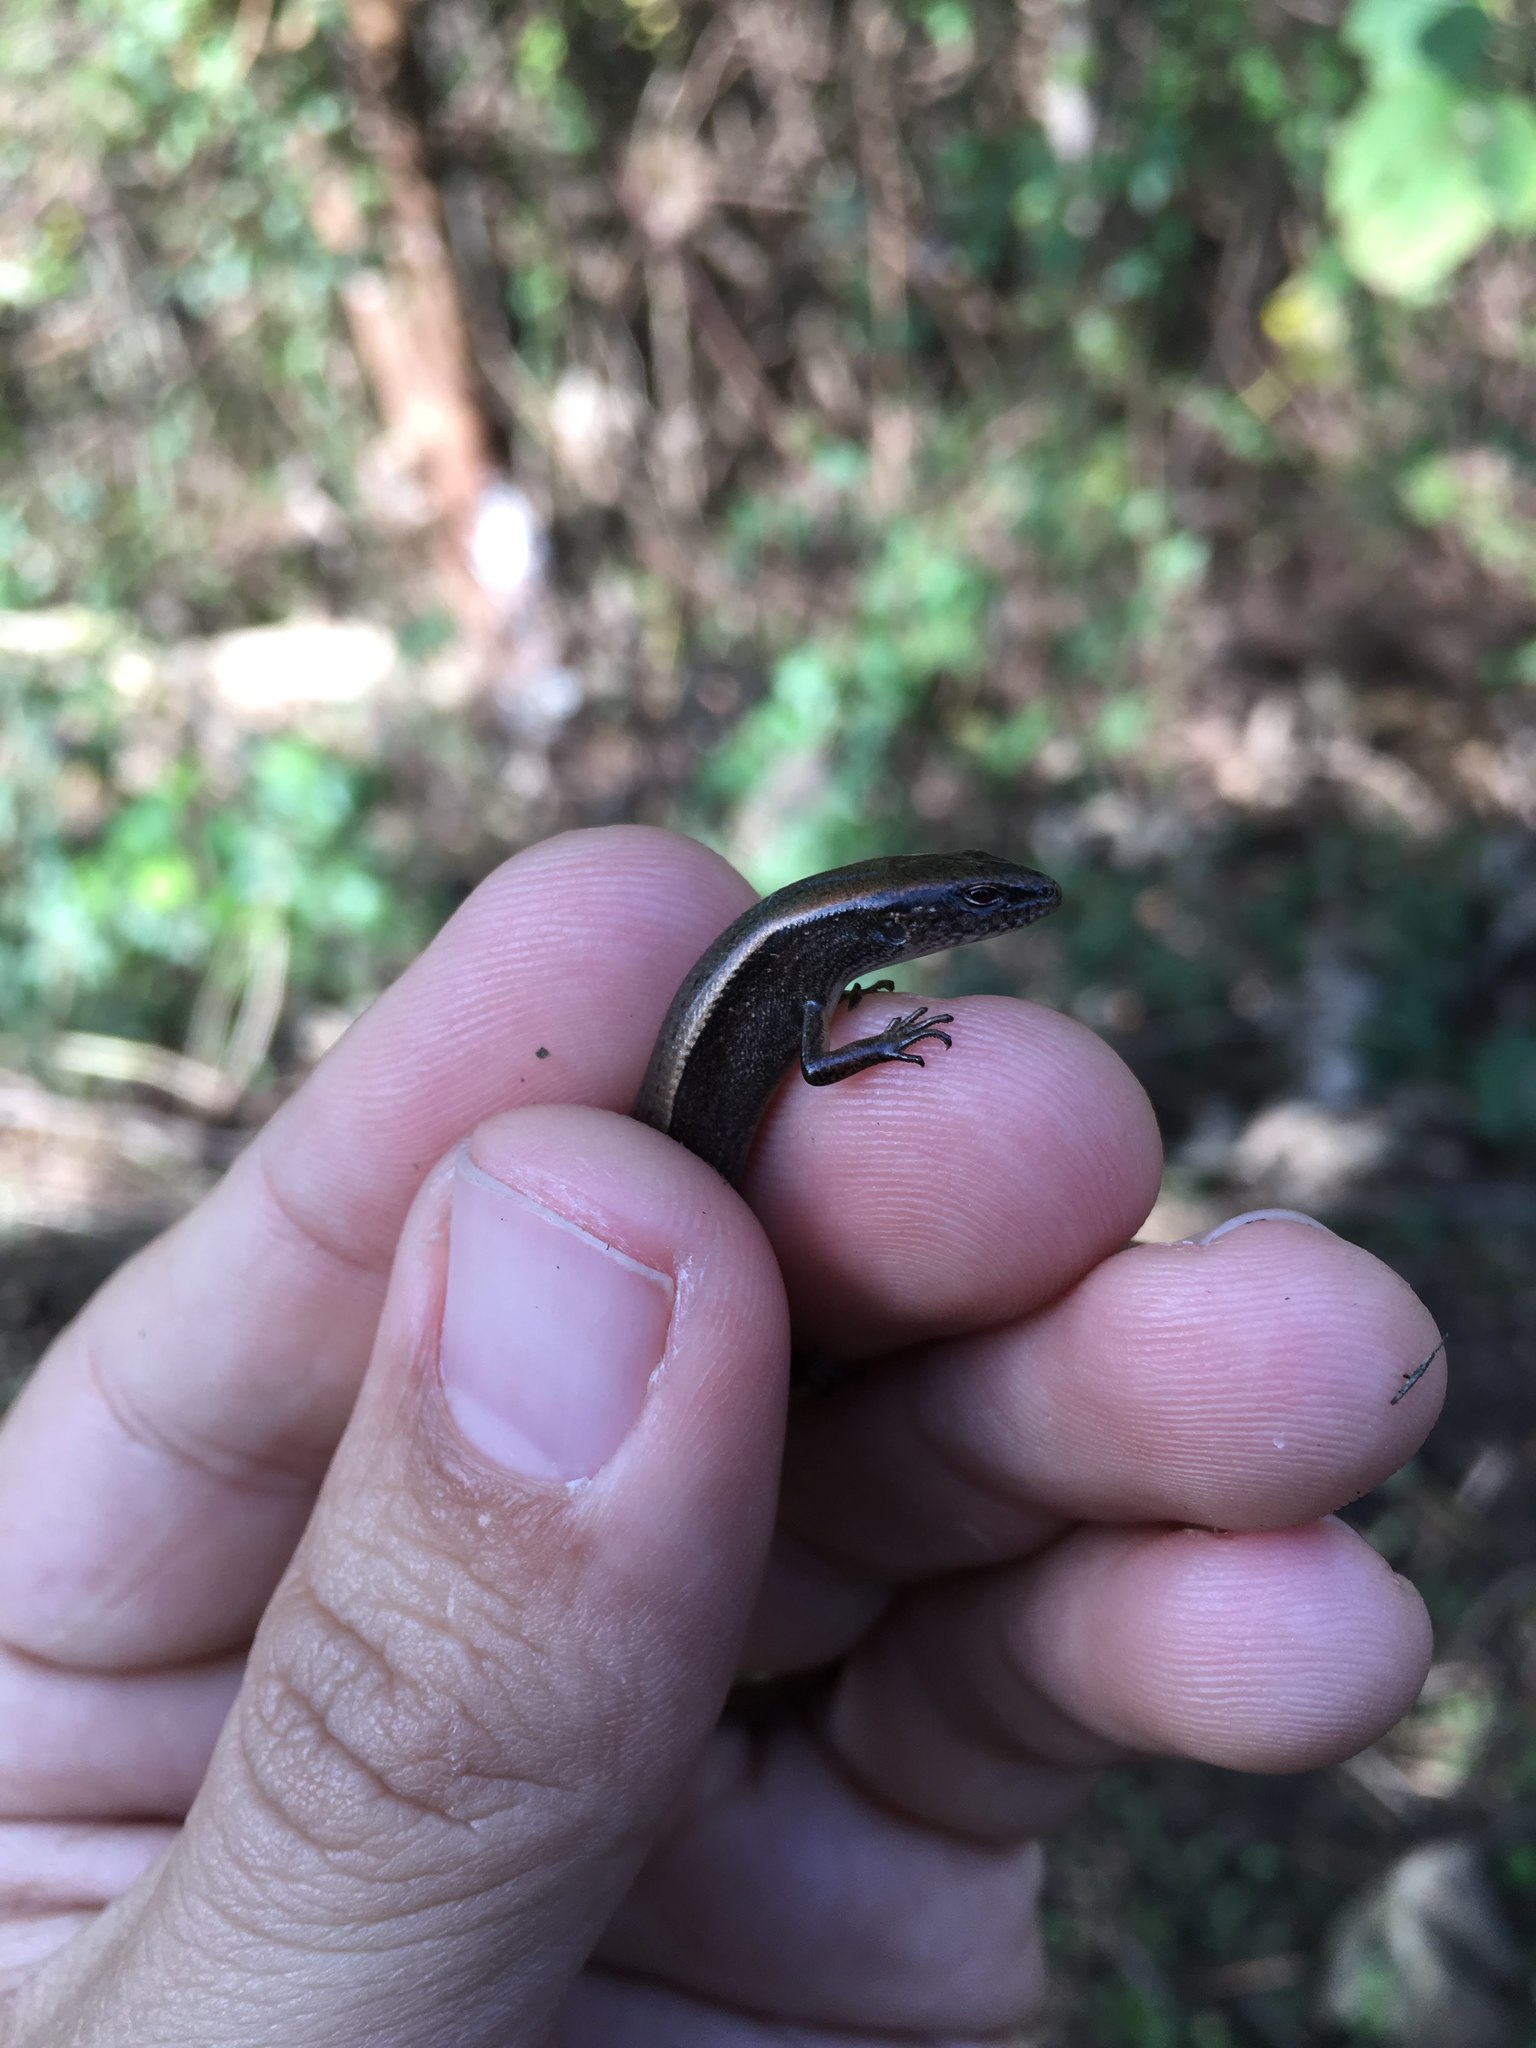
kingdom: Animalia
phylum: Chordata
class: Squamata
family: Scincidae
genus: Scincella
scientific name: Scincella lateralis
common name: Ground skink
